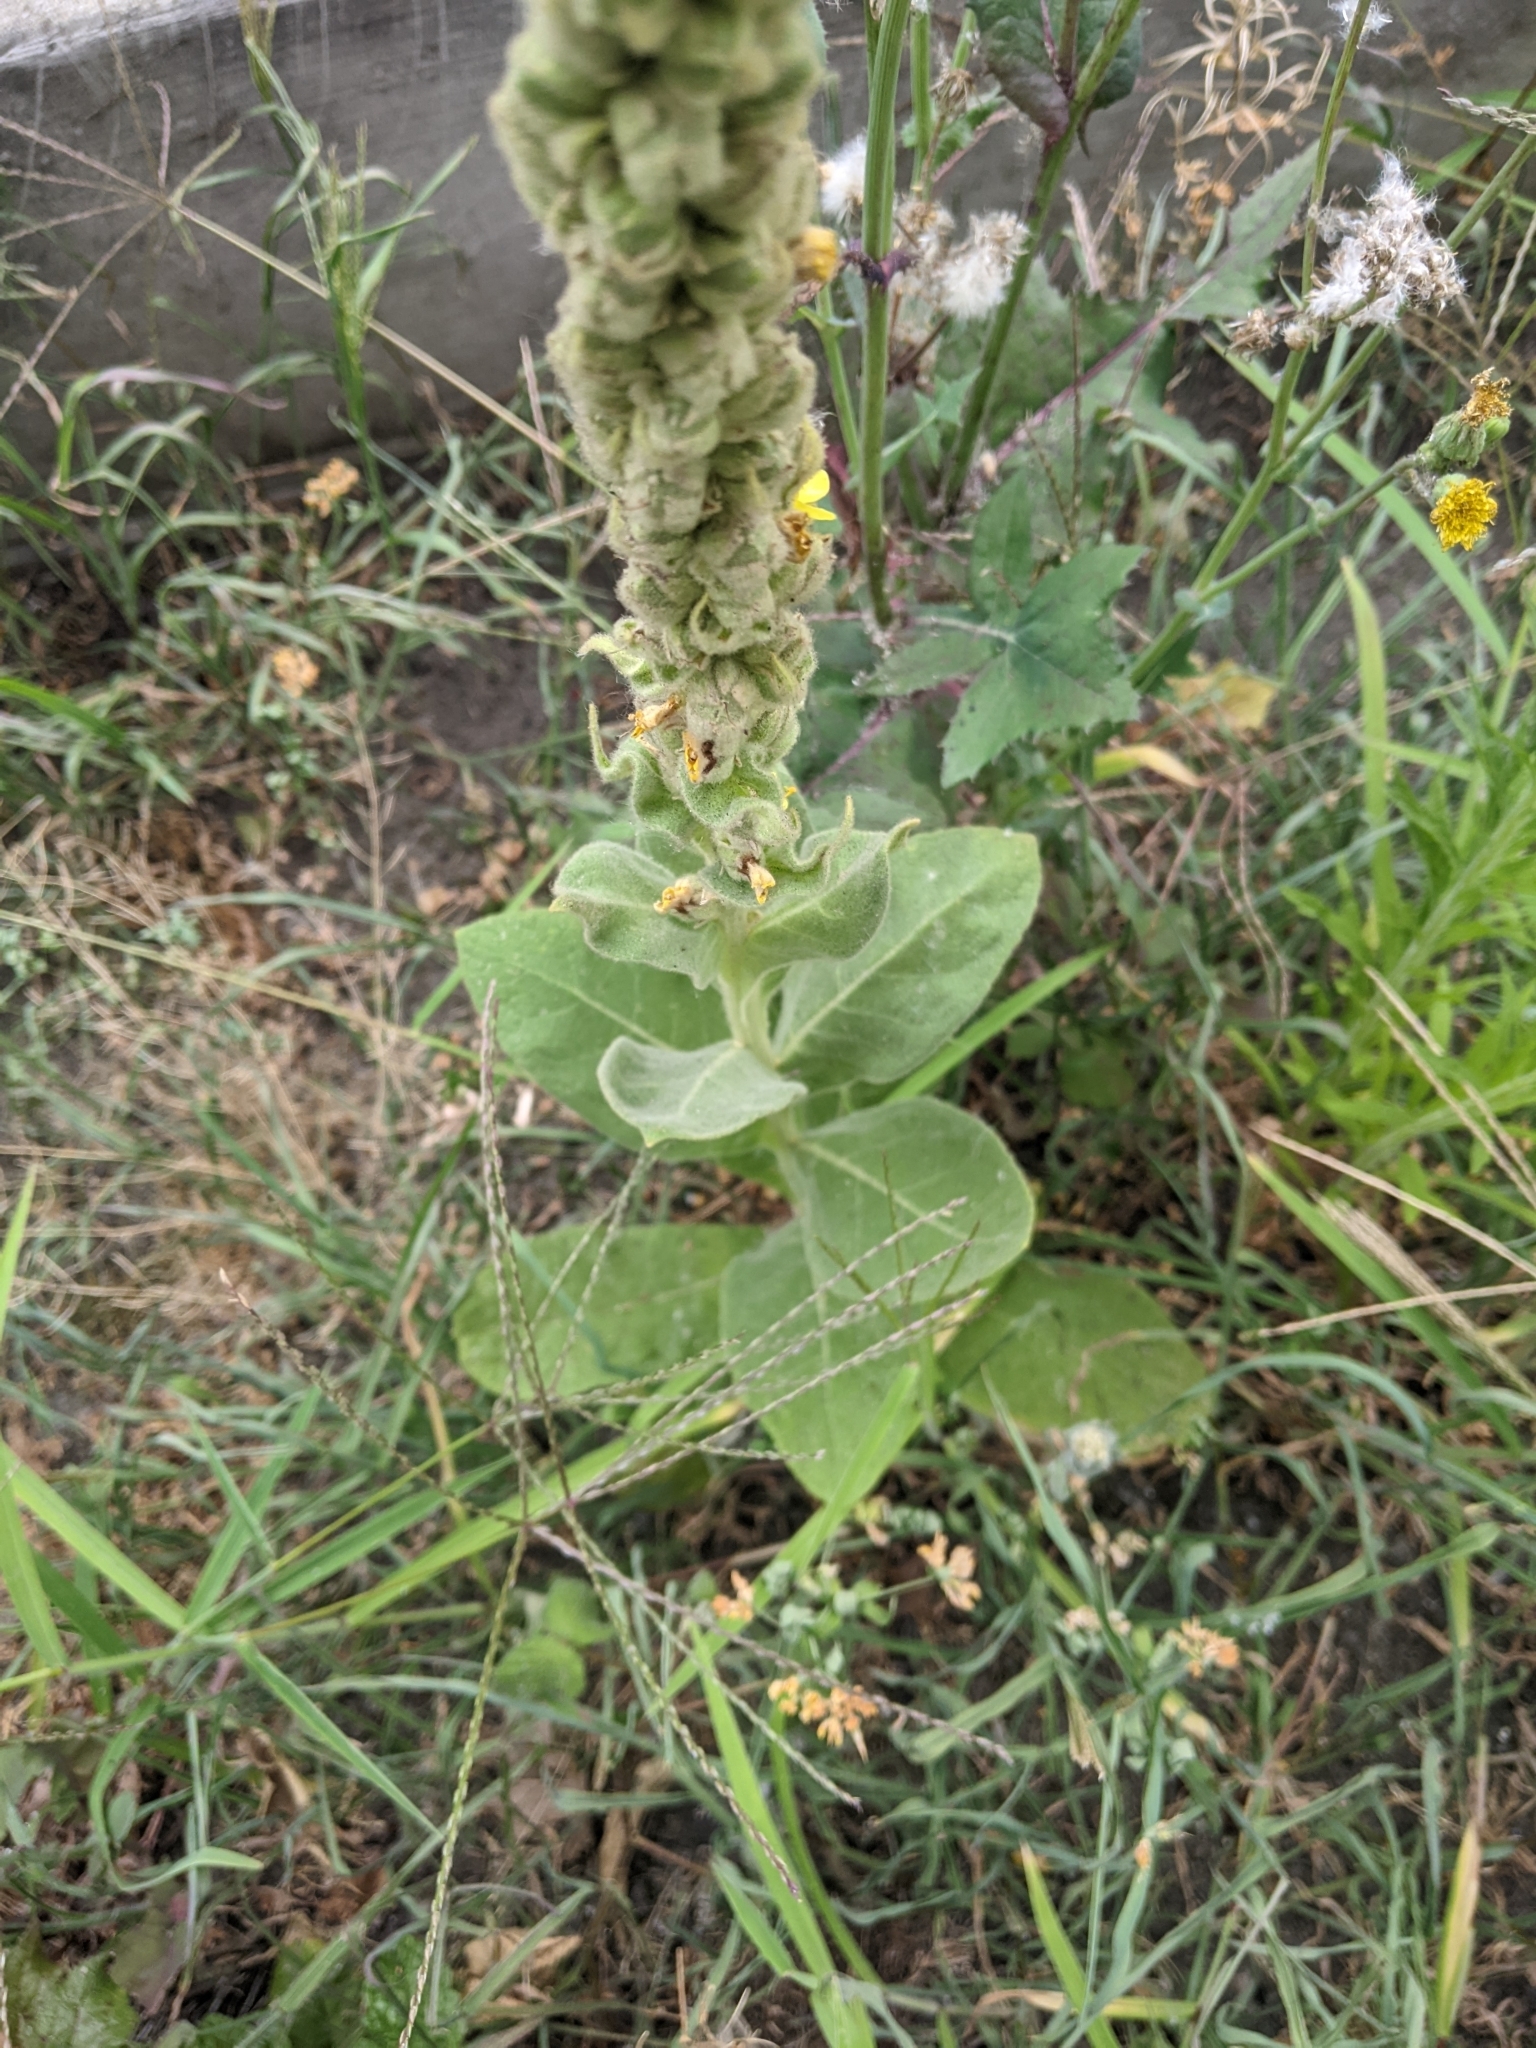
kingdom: Plantae
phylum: Tracheophyta
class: Magnoliopsida
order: Lamiales
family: Scrophulariaceae
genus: Verbascum
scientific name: Verbascum thapsus
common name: Common mullein
